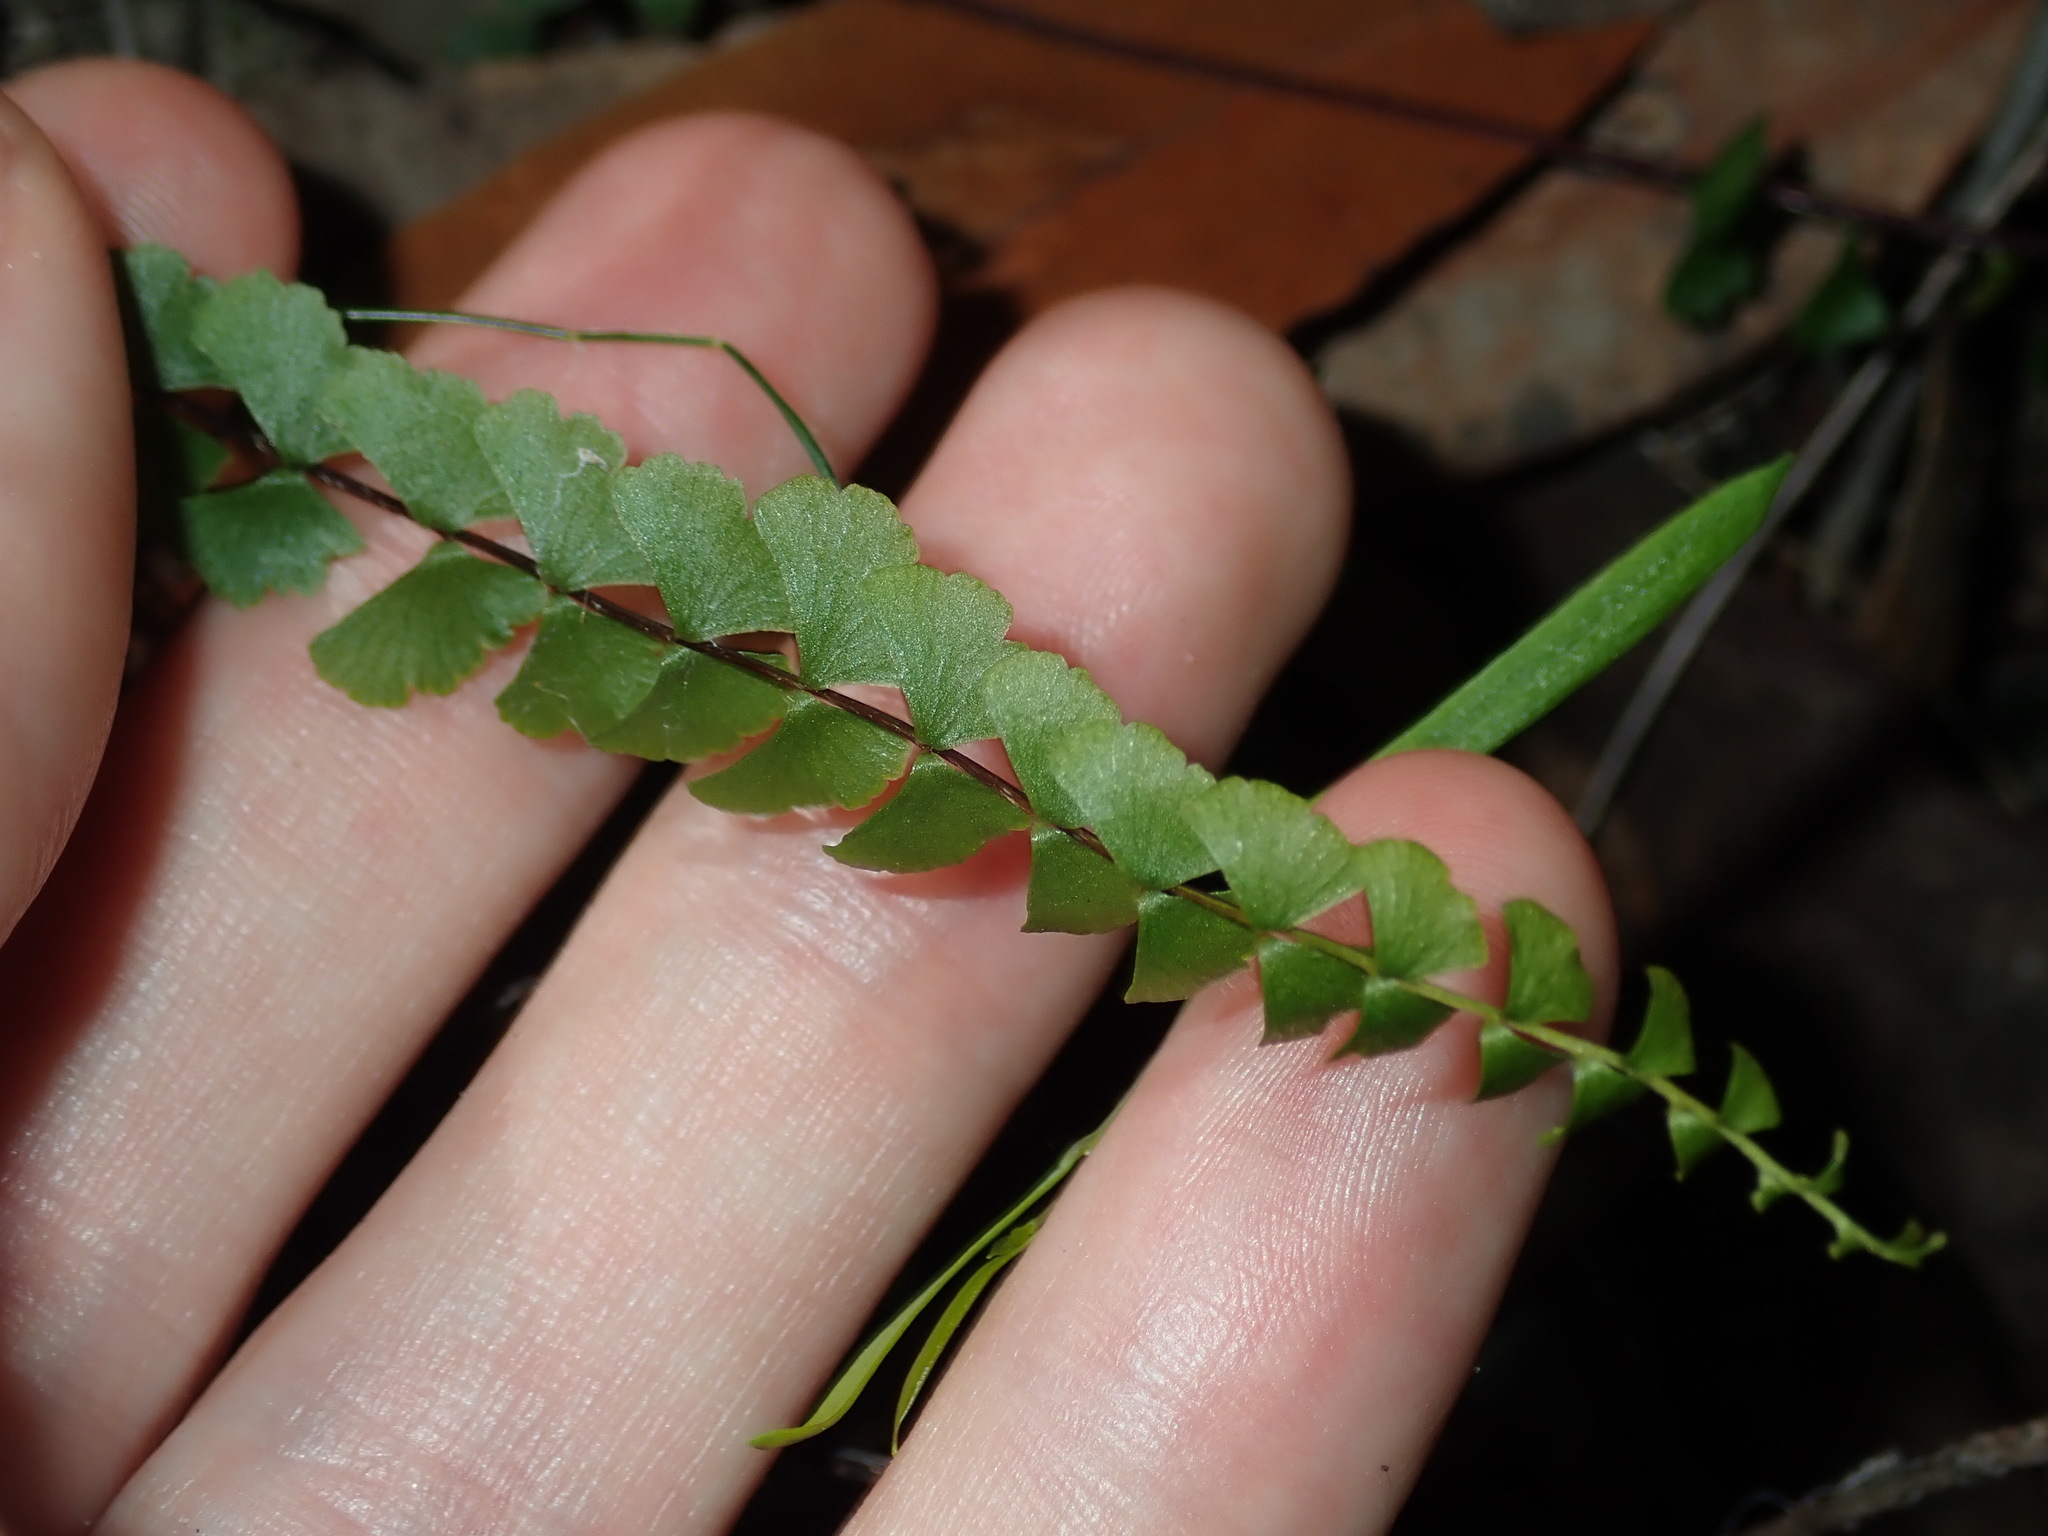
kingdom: Plantae
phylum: Tracheophyta
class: Polypodiopsida
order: Polypodiales
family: Lindsaeaceae
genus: Lindsaea
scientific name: Lindsaea linearis
